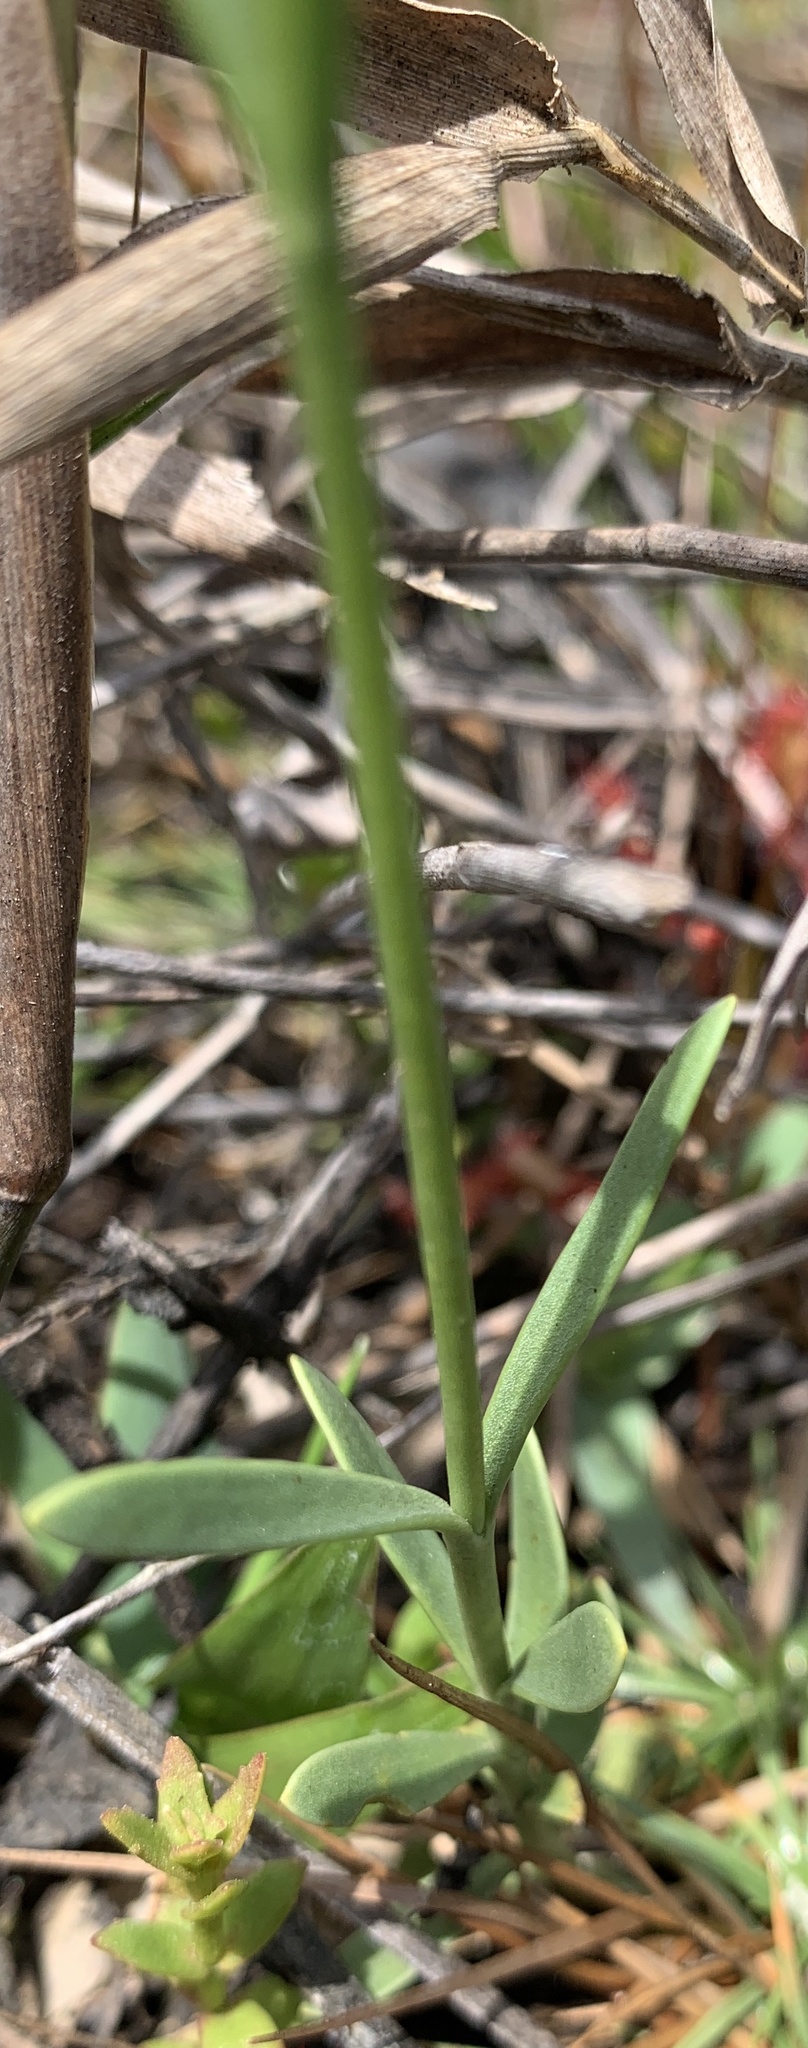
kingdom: Plantae
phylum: Tracheophyta
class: Magnoliopsida
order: Gentianales
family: Gentianaceae
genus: Sabatia
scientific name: Sabatia grandiflora
